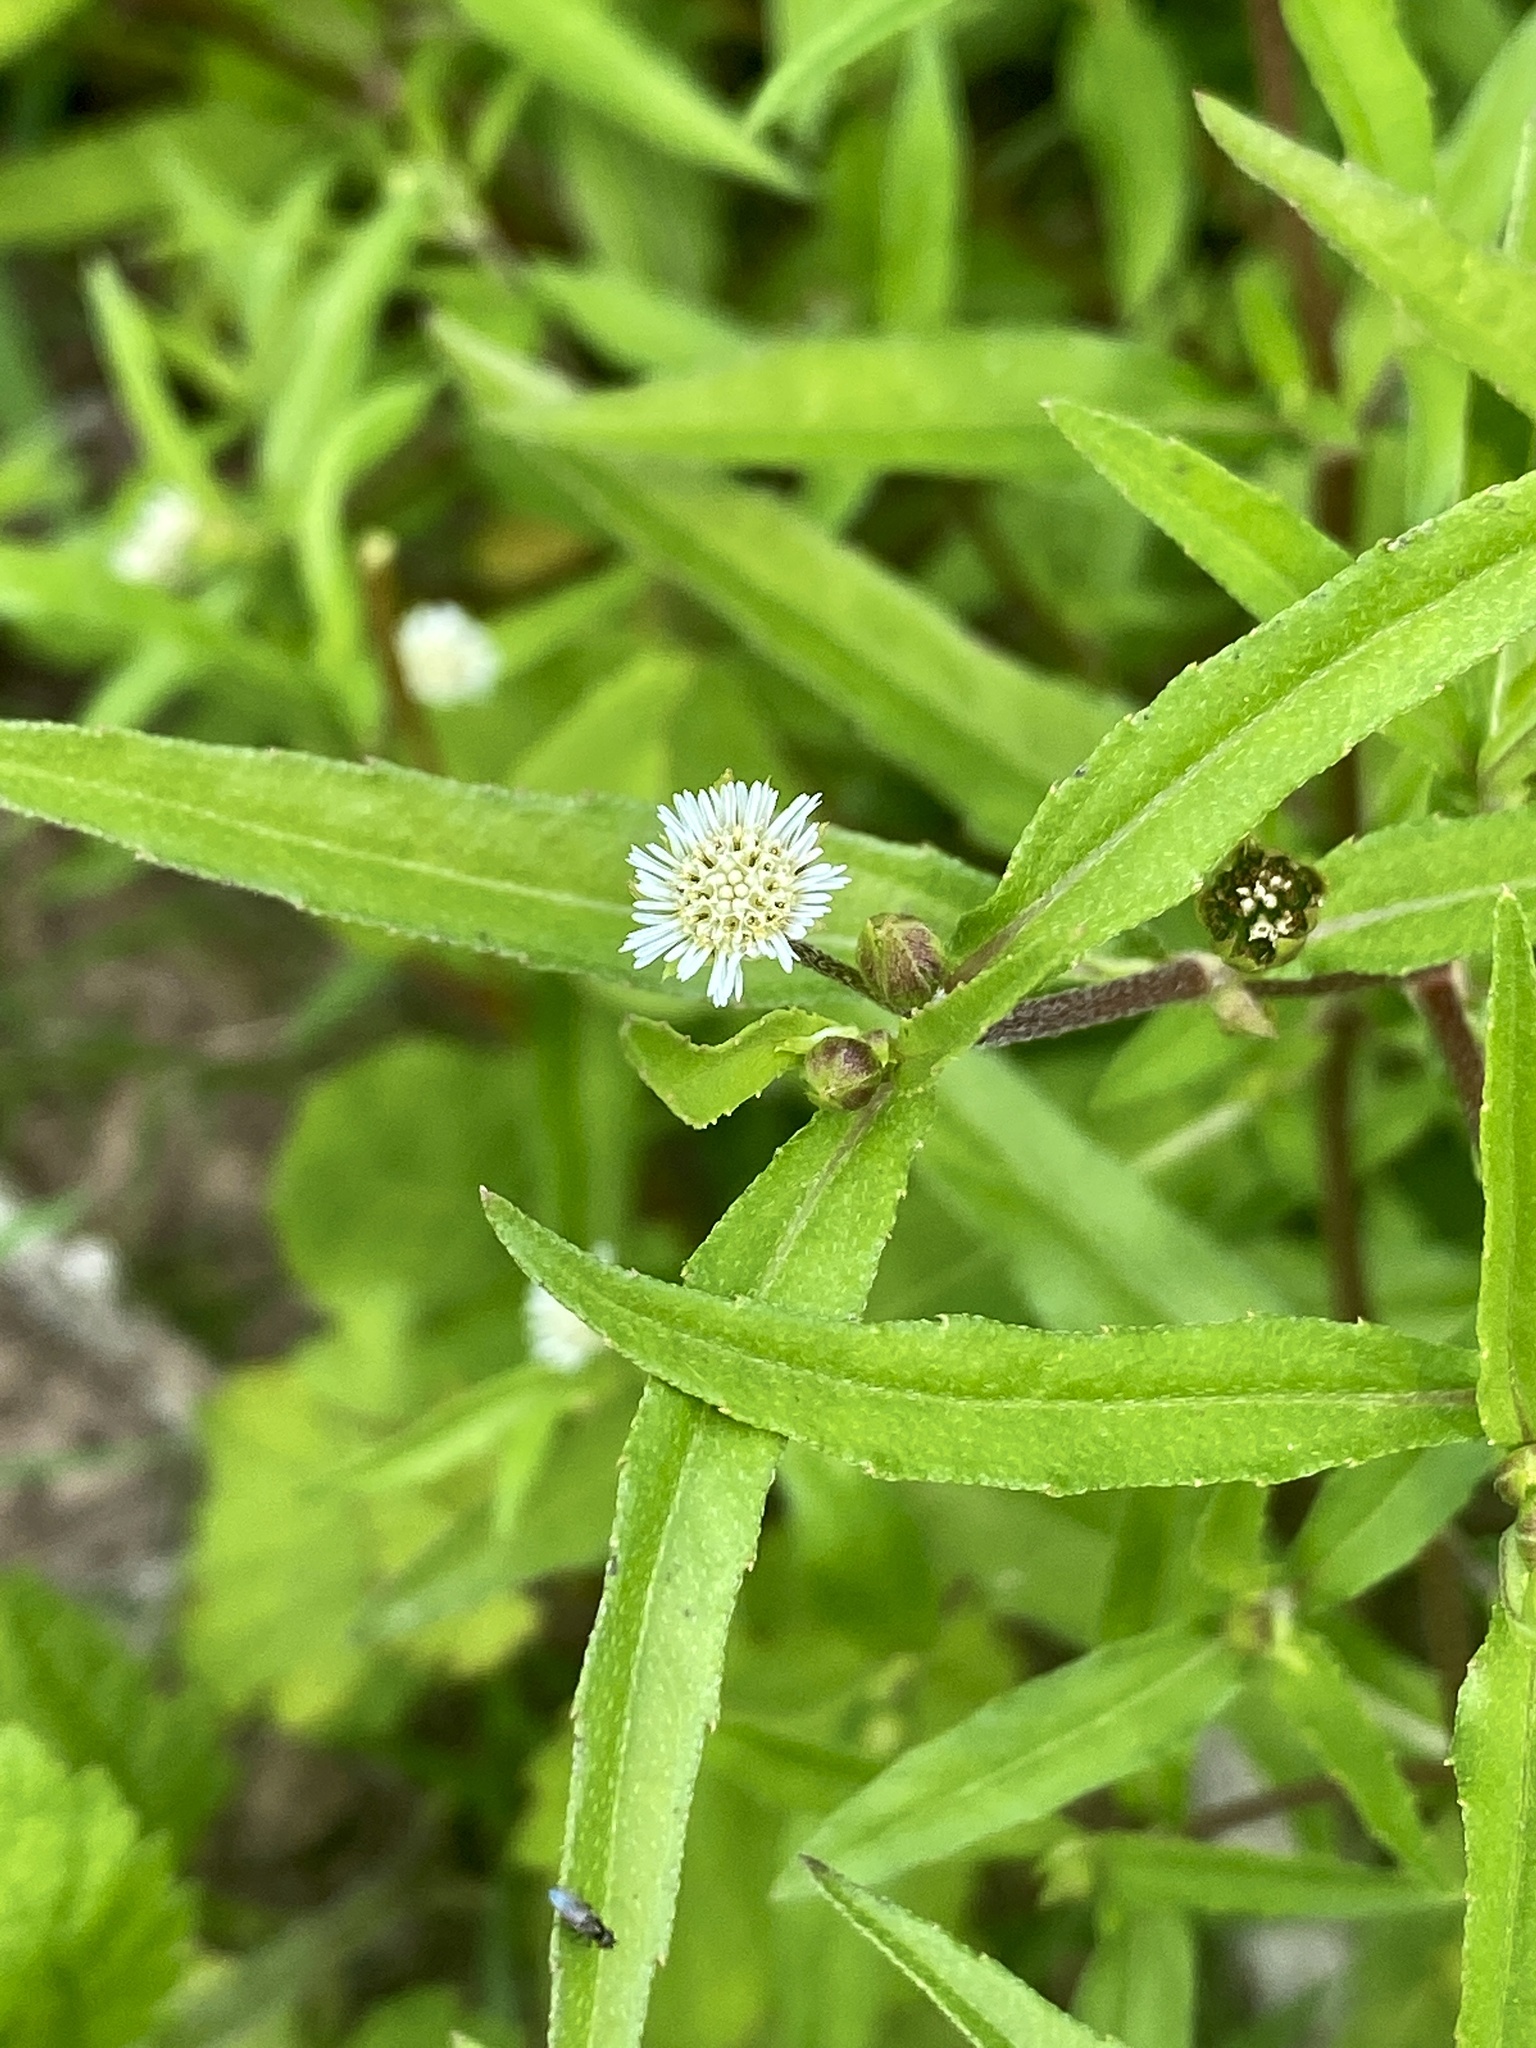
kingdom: Plantae
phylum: Tracheophyta
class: Magnoliopsida
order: Asterales
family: Asteraceae
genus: Eclipta
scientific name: Eclipta prostrata
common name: False daisy
